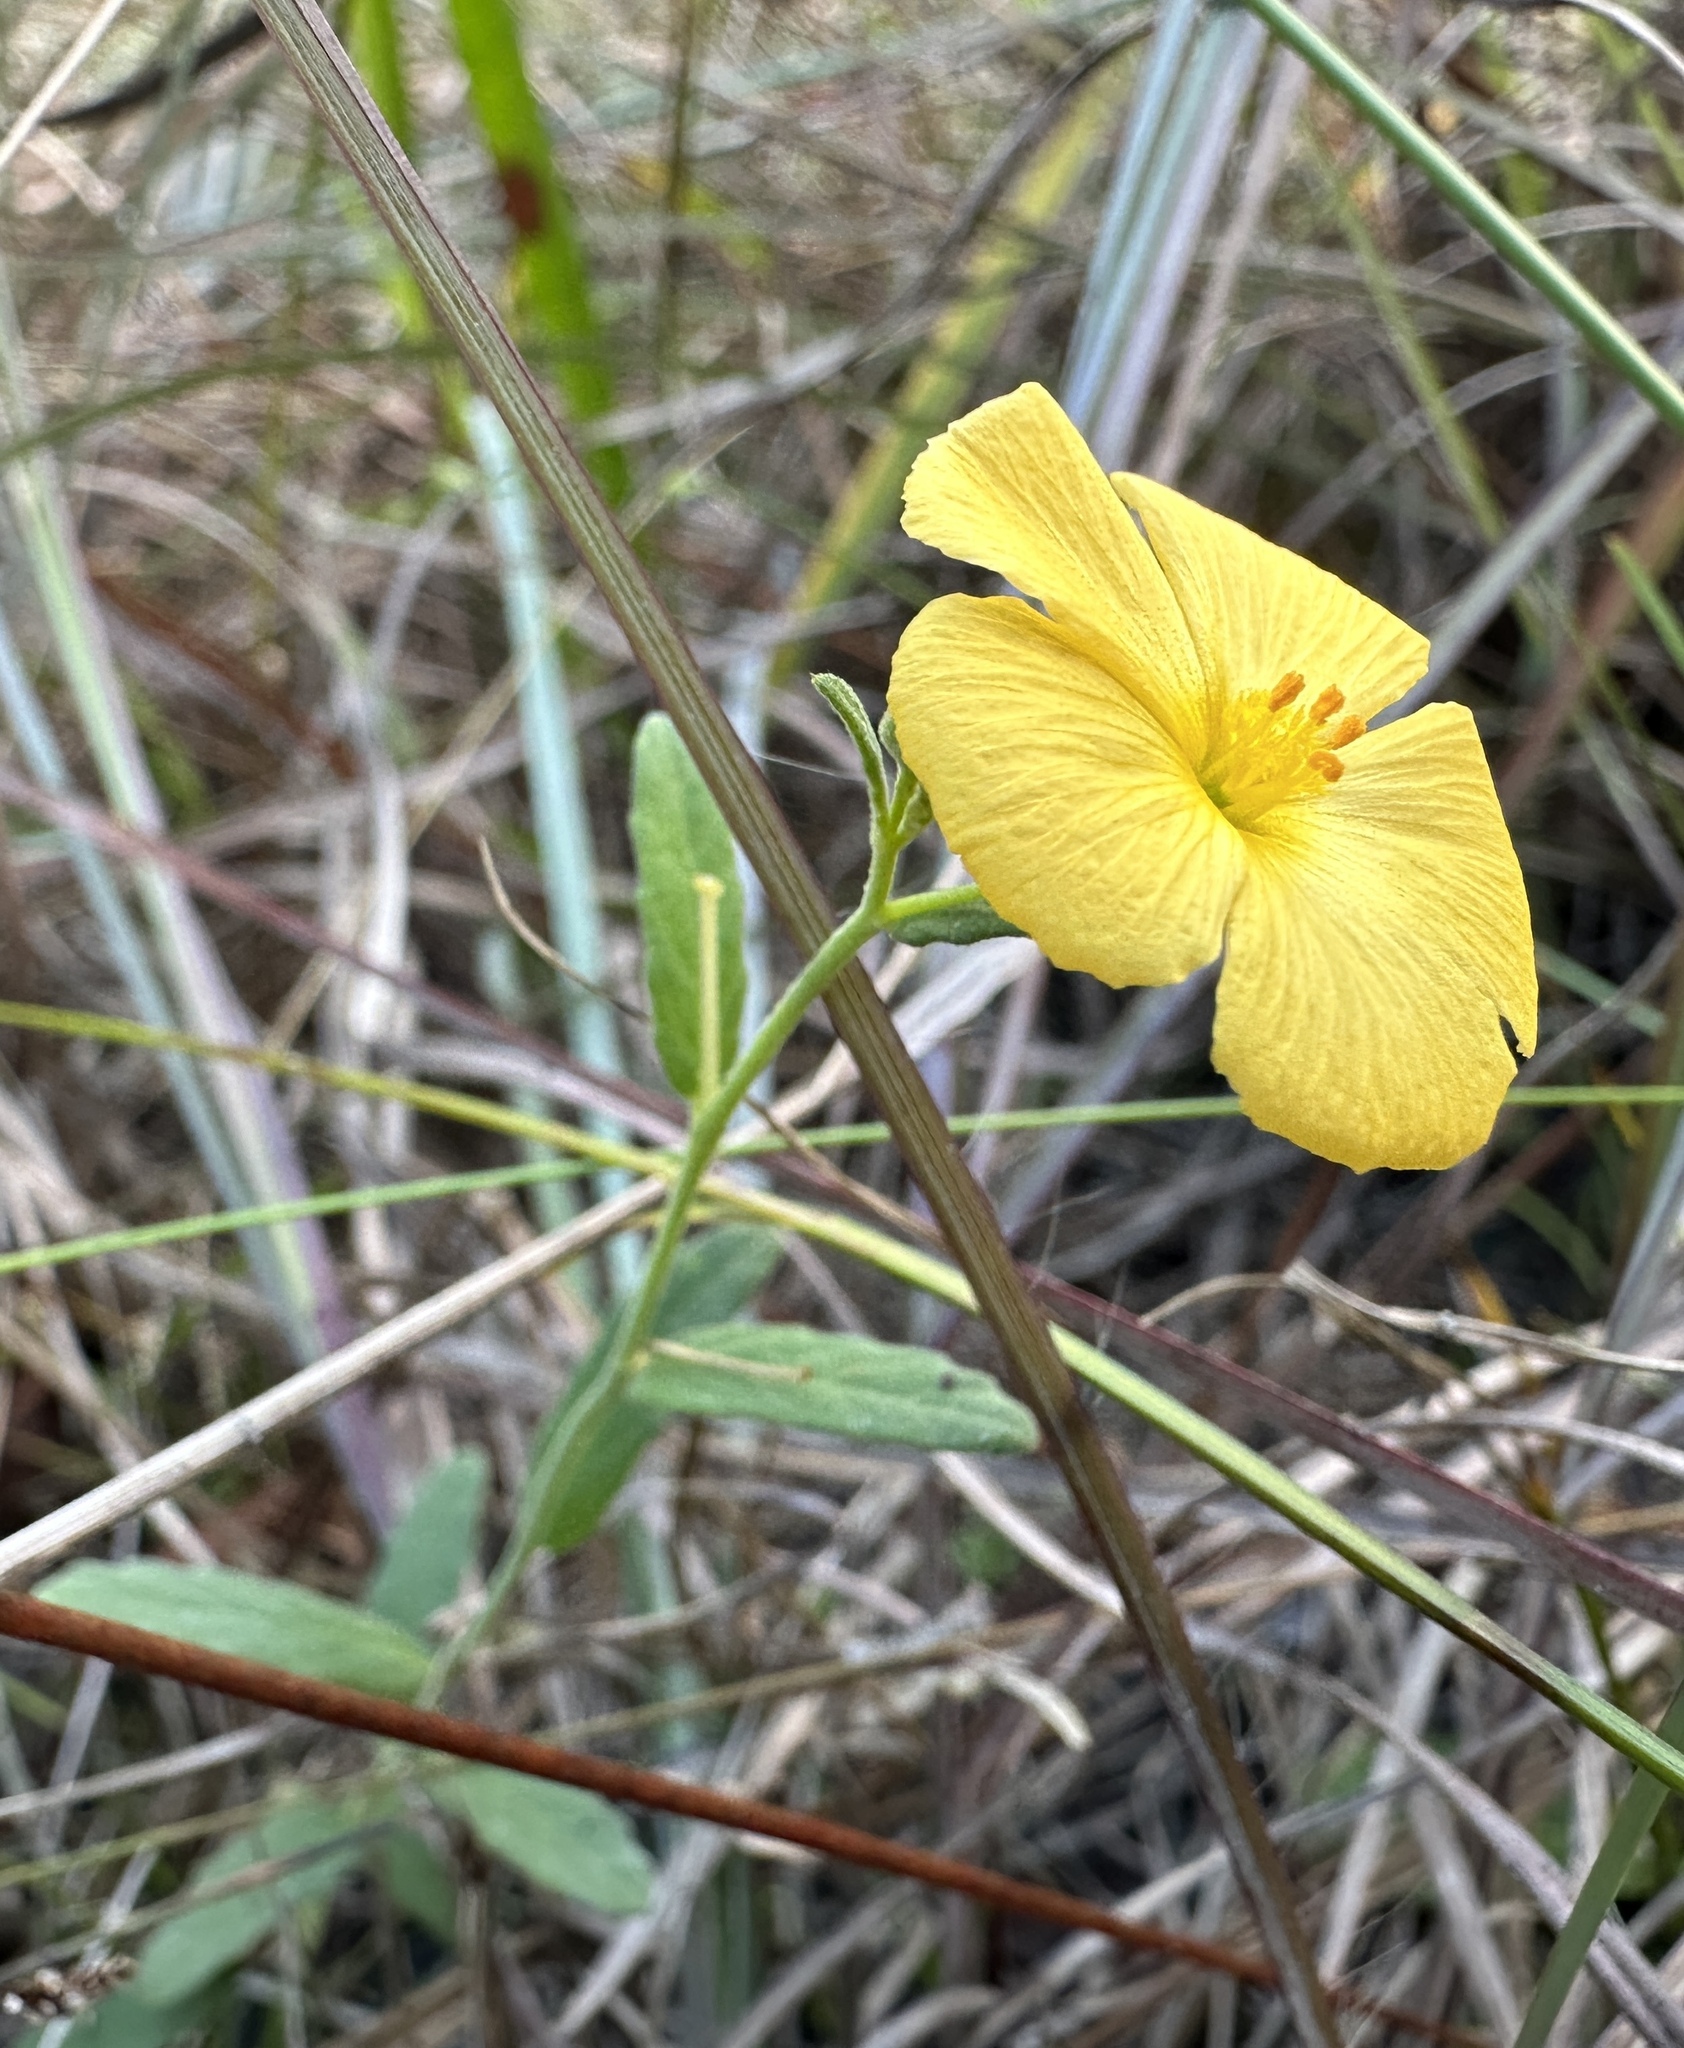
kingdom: Plantae
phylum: Tracheophyta
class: Magnoliopsida
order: Malpighiales
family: Turneraceae
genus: Piriqueta
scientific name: Piriqueta cistoides
